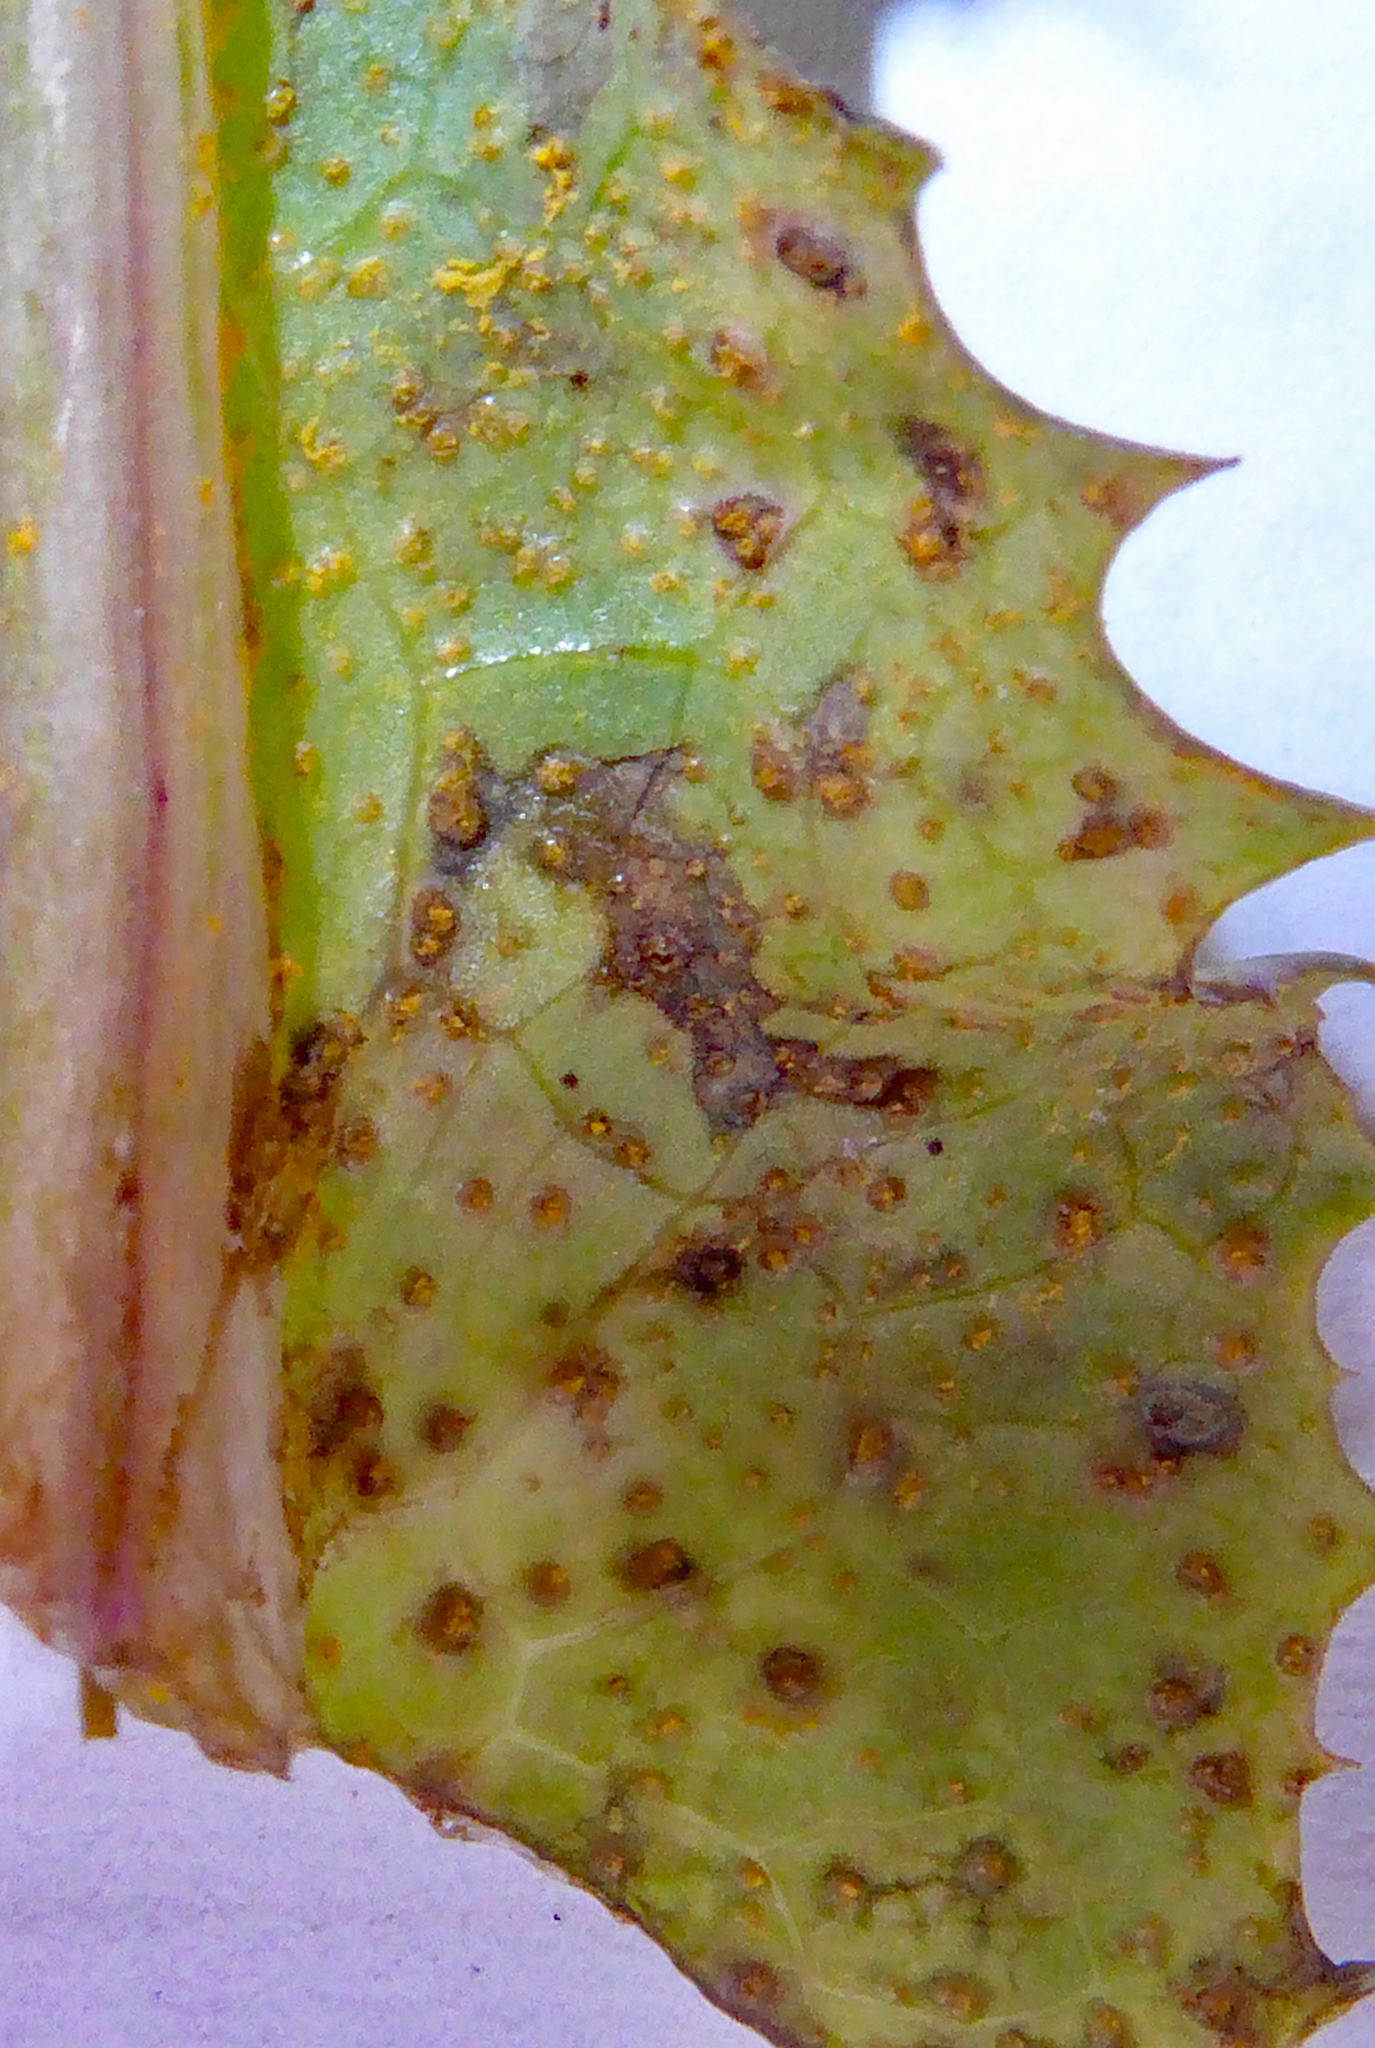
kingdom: Fungi
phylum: Basidiomycota
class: Pucciniomycetes
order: Pucciniales
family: Pucciniaceae
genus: Peristemma
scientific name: Peristemma pseudosphaeria
